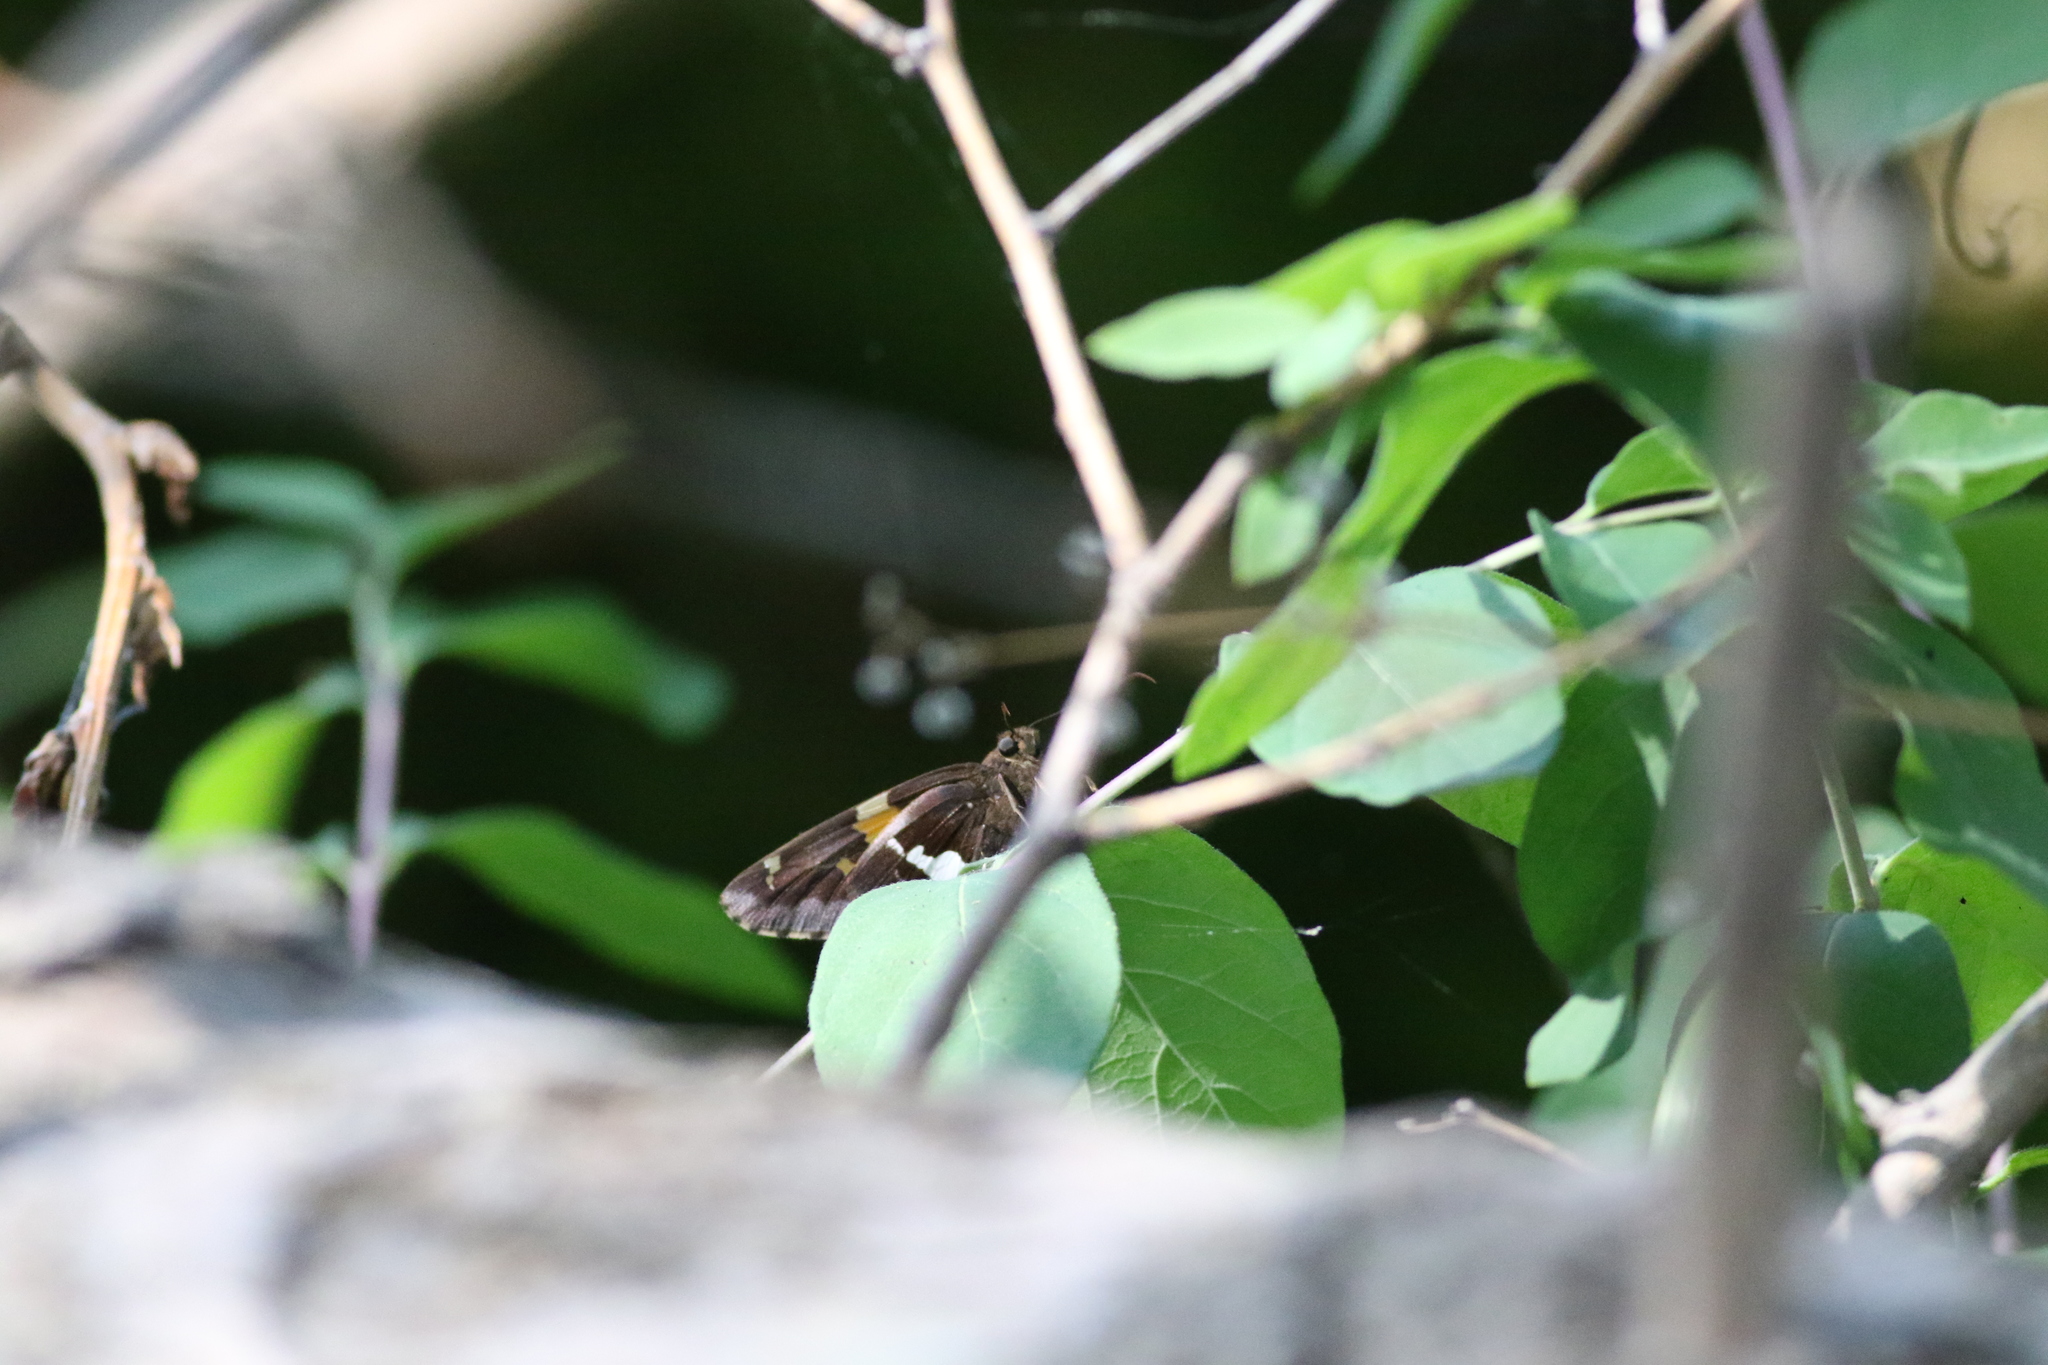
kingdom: Animalia
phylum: Arthropoda
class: Insecta
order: Lepidoptera
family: Hesperiidae
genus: Epargyreus
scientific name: Epargyreus clarus
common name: Silver-spotted skipper
